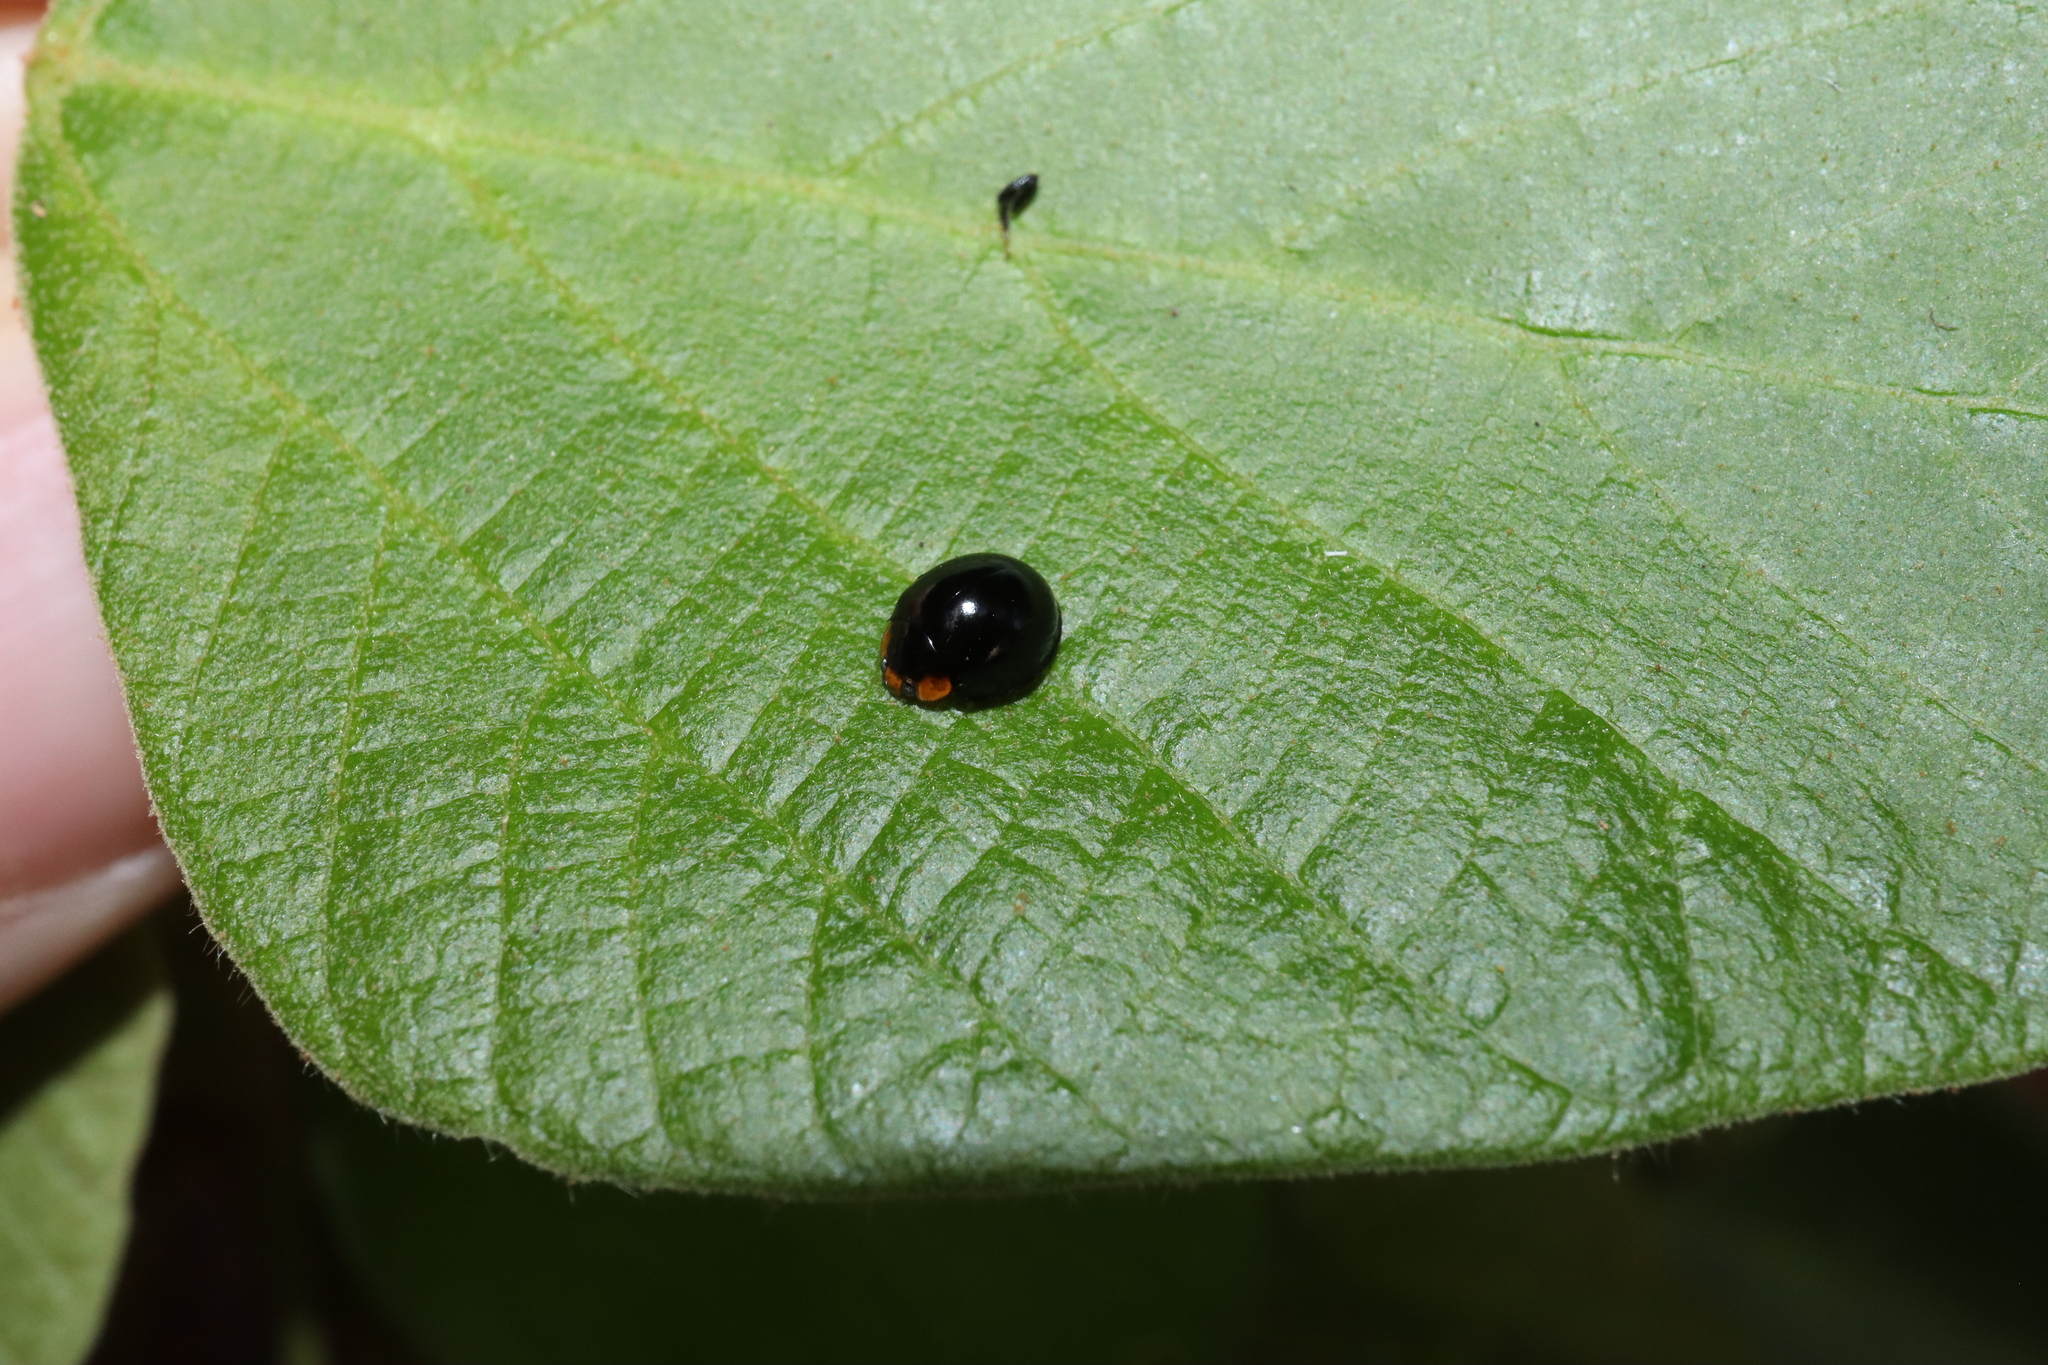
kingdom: Animalia
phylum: Arthropoda
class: Insecta
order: Coleoptera
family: Coccinellidae
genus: Coelophora
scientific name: Coelophora inaequalis
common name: Common australian lady beetle
